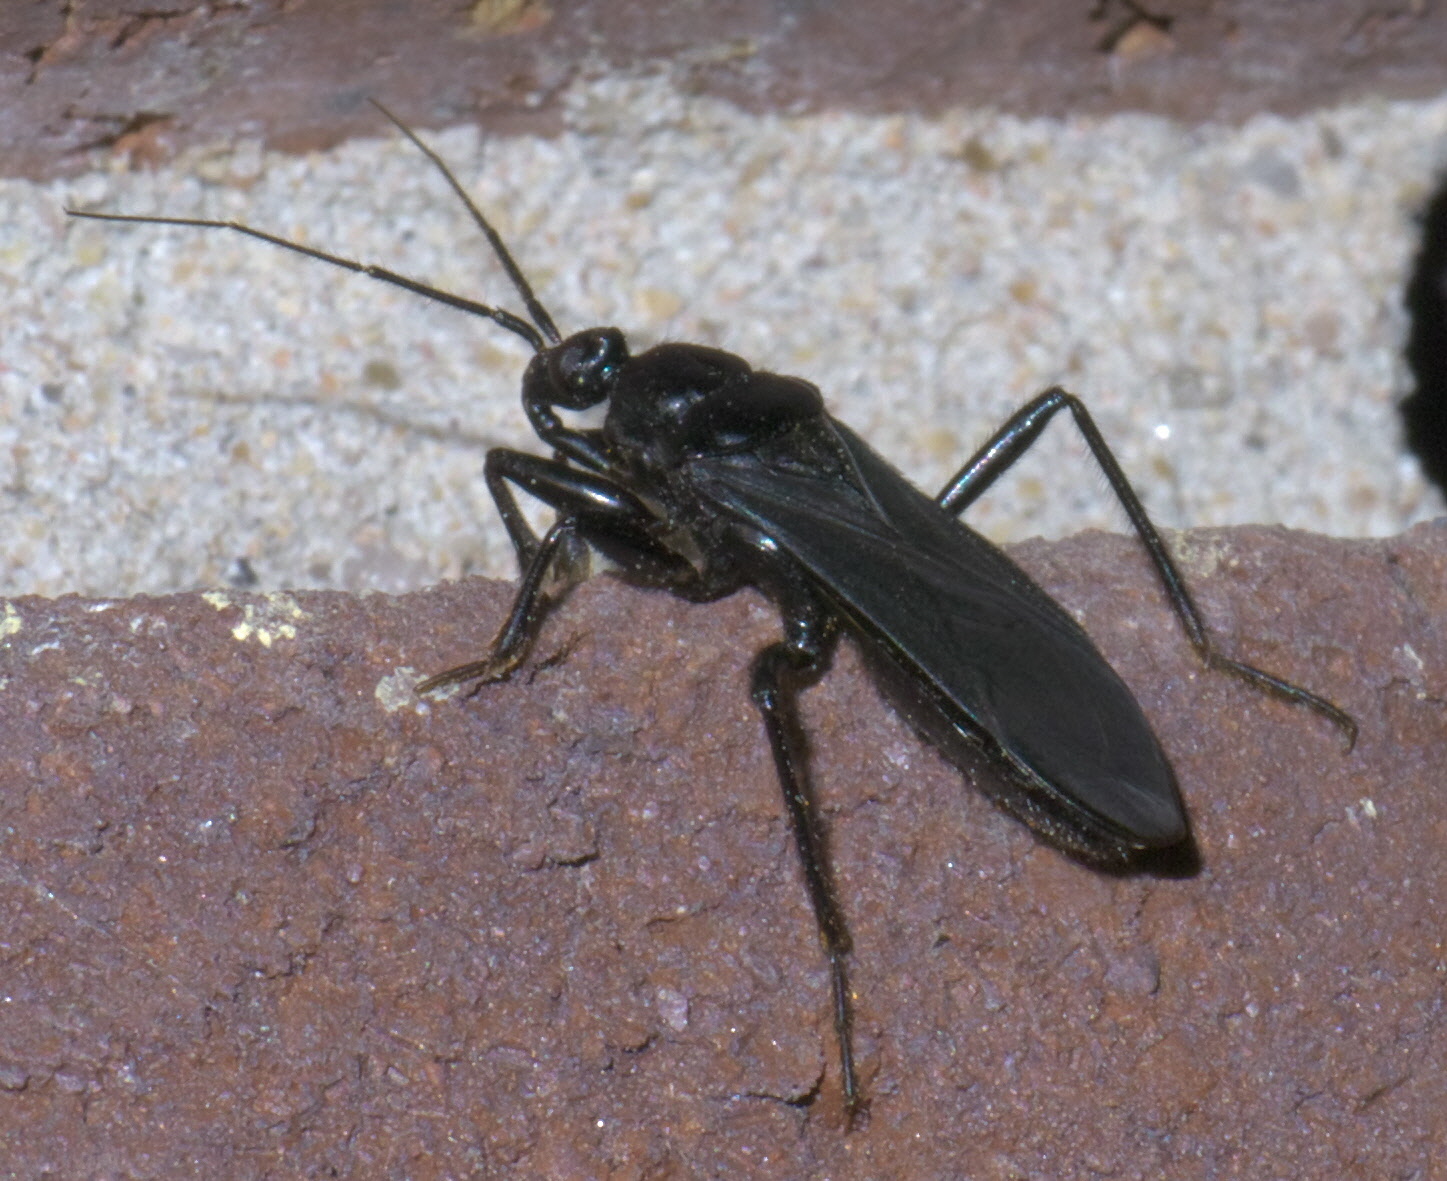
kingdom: Animalia
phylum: Arthropoda
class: Insecta
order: Hemiptera
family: Reduviidae
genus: Melanolestes
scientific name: Melanolestes picipes
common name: Assassin bug
